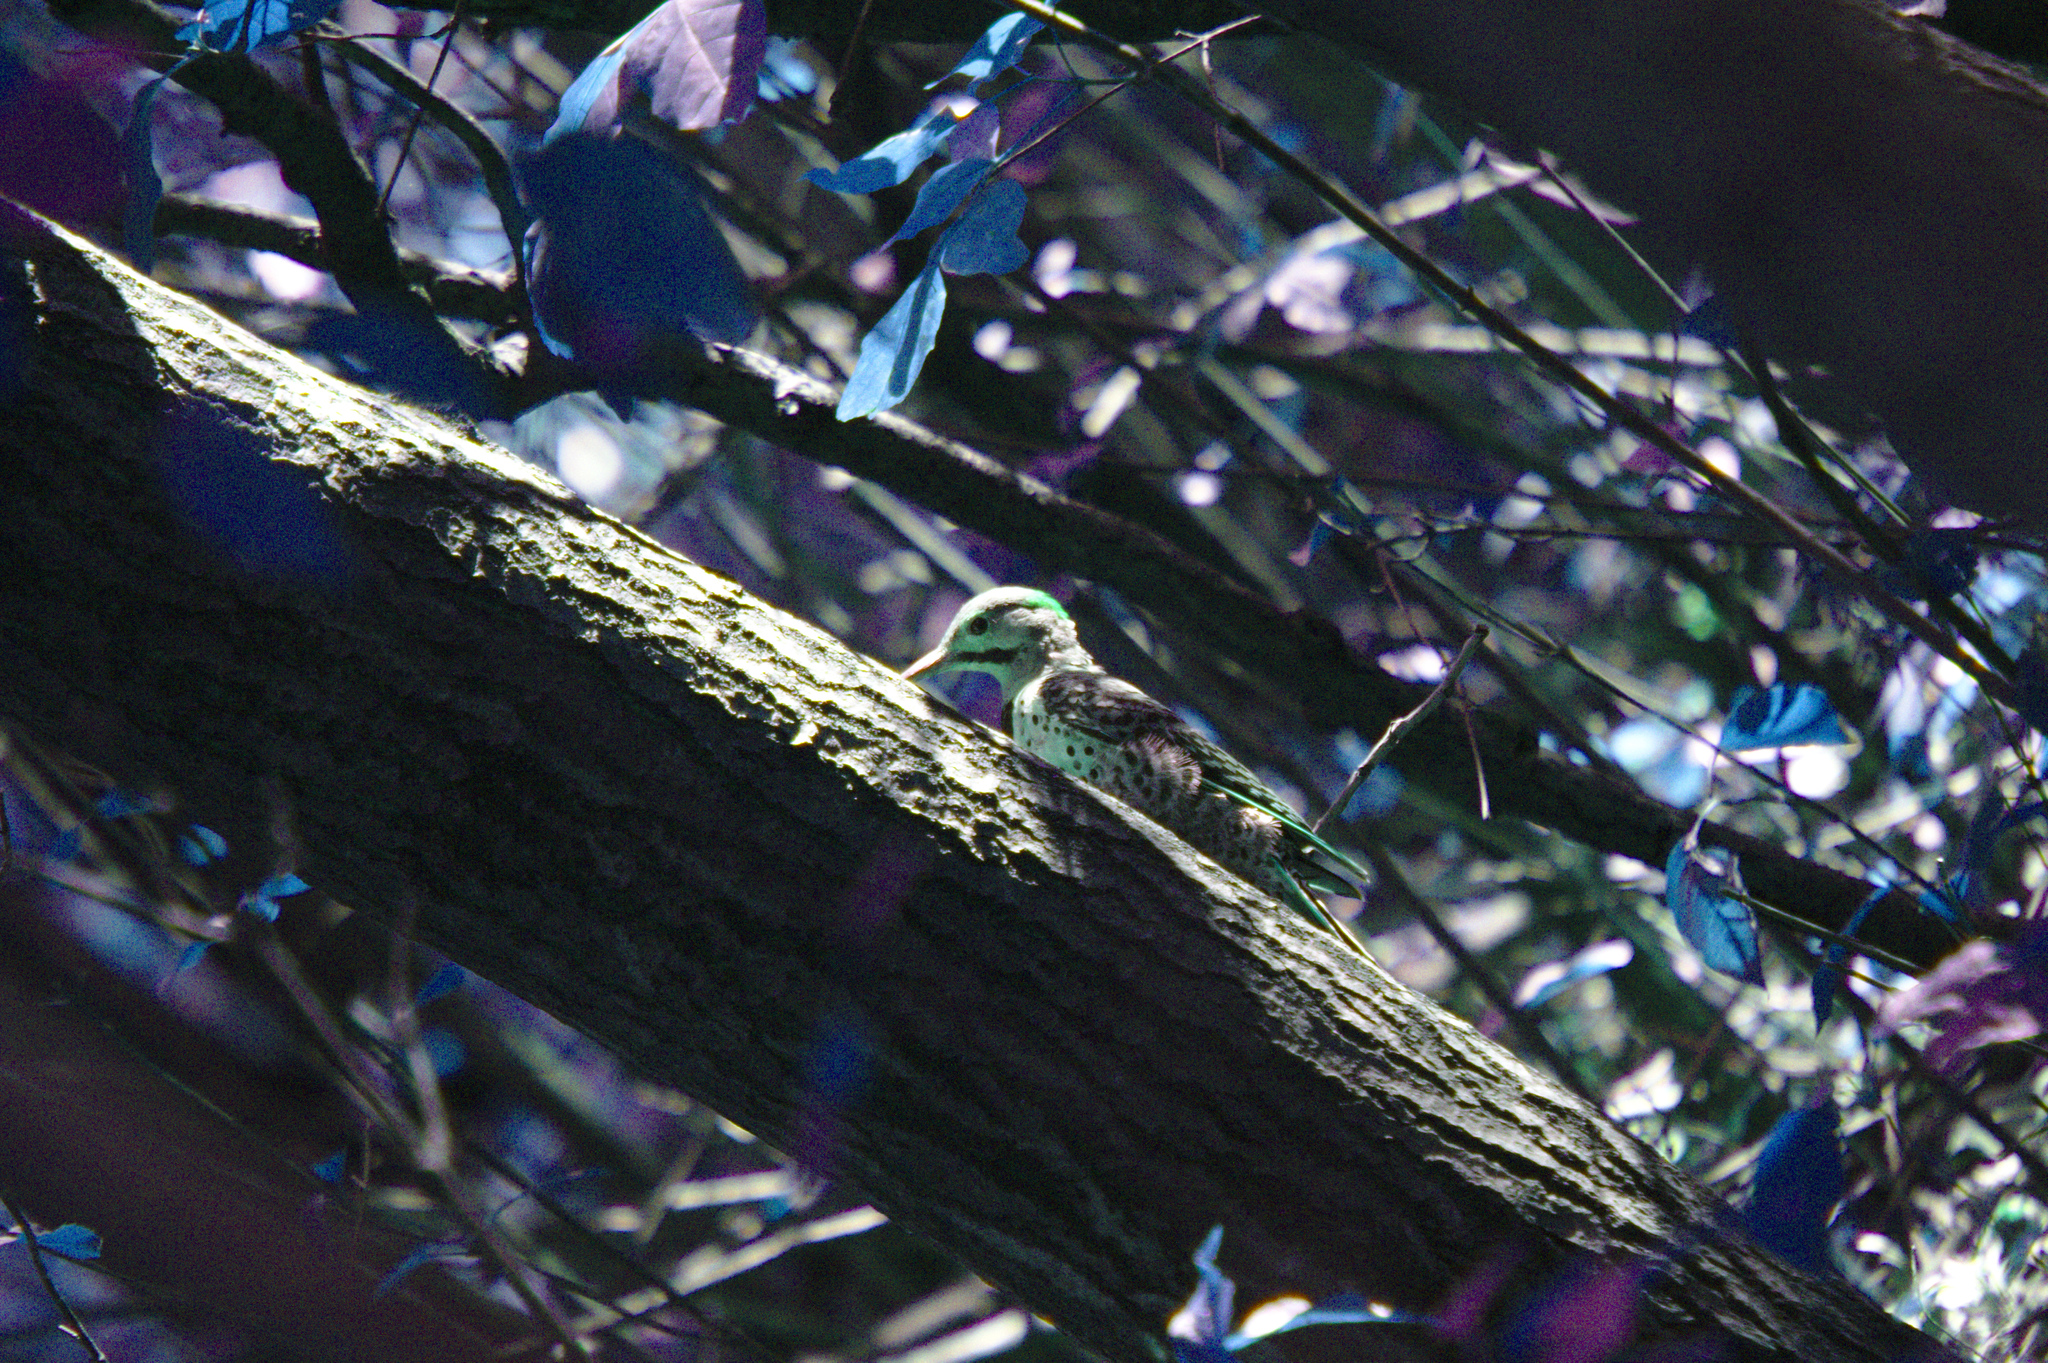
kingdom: Animalia
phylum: Chordata
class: Aves
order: Piciformes
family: Picidae
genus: Colaptes
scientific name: Colaptes auratus
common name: Northern flicker
